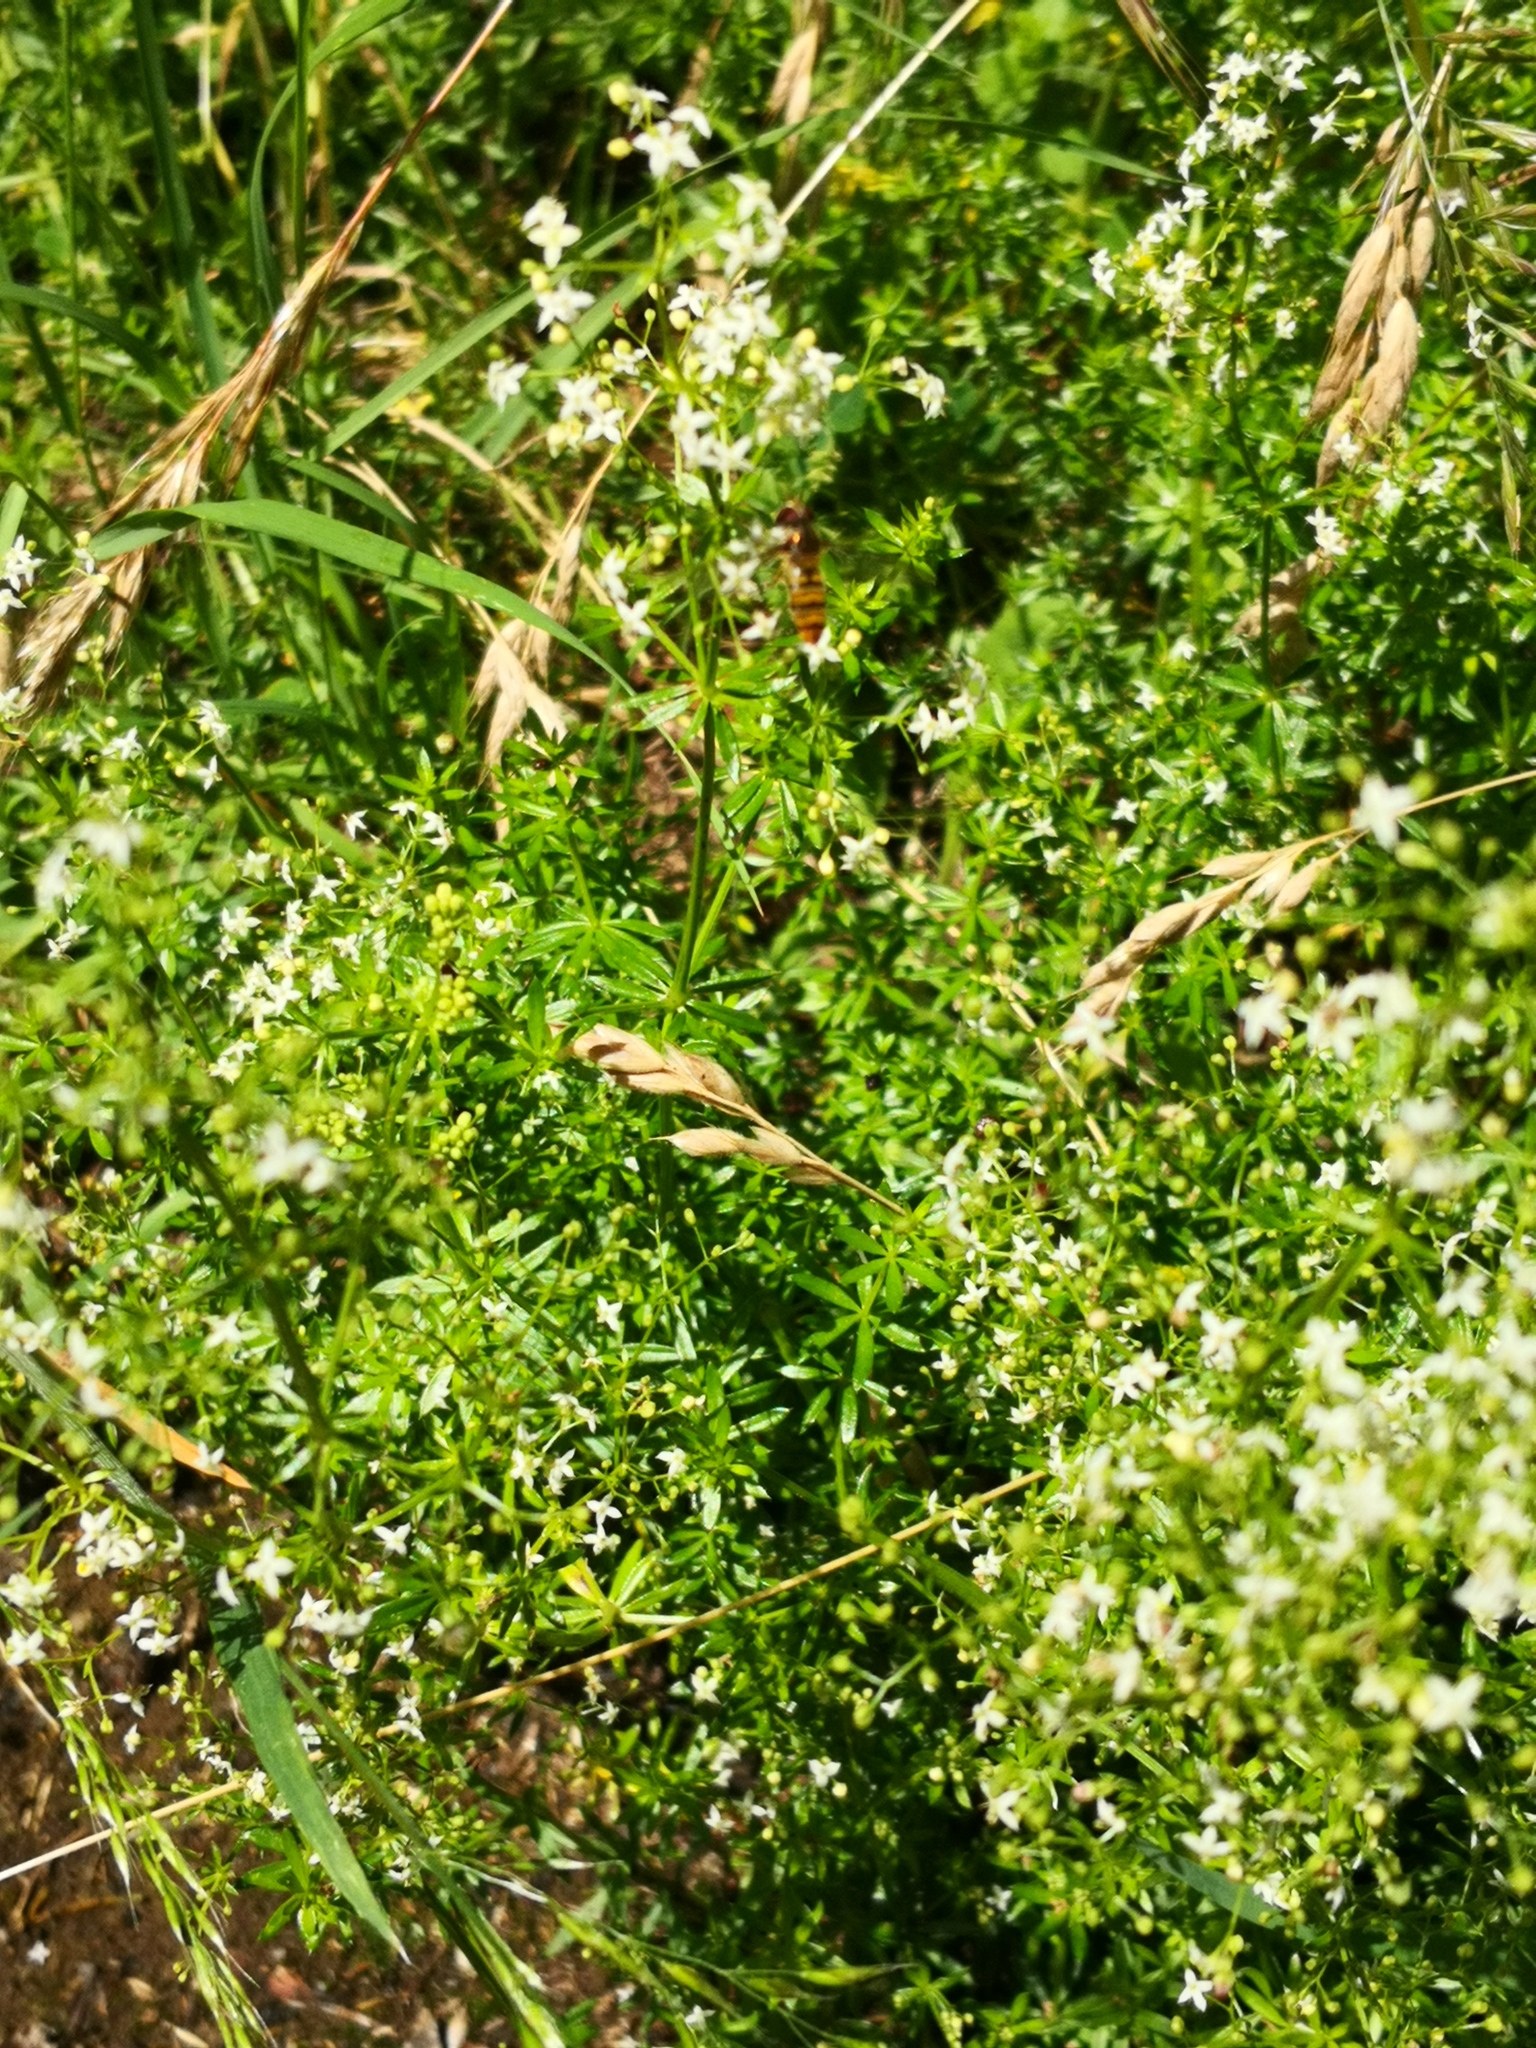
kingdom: Plantae
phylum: Tracheophyta
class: Magnoliopsida
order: Gentianales
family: Rubiaceae
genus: Galium
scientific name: Galium mollugo
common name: Hedge bedstraw
